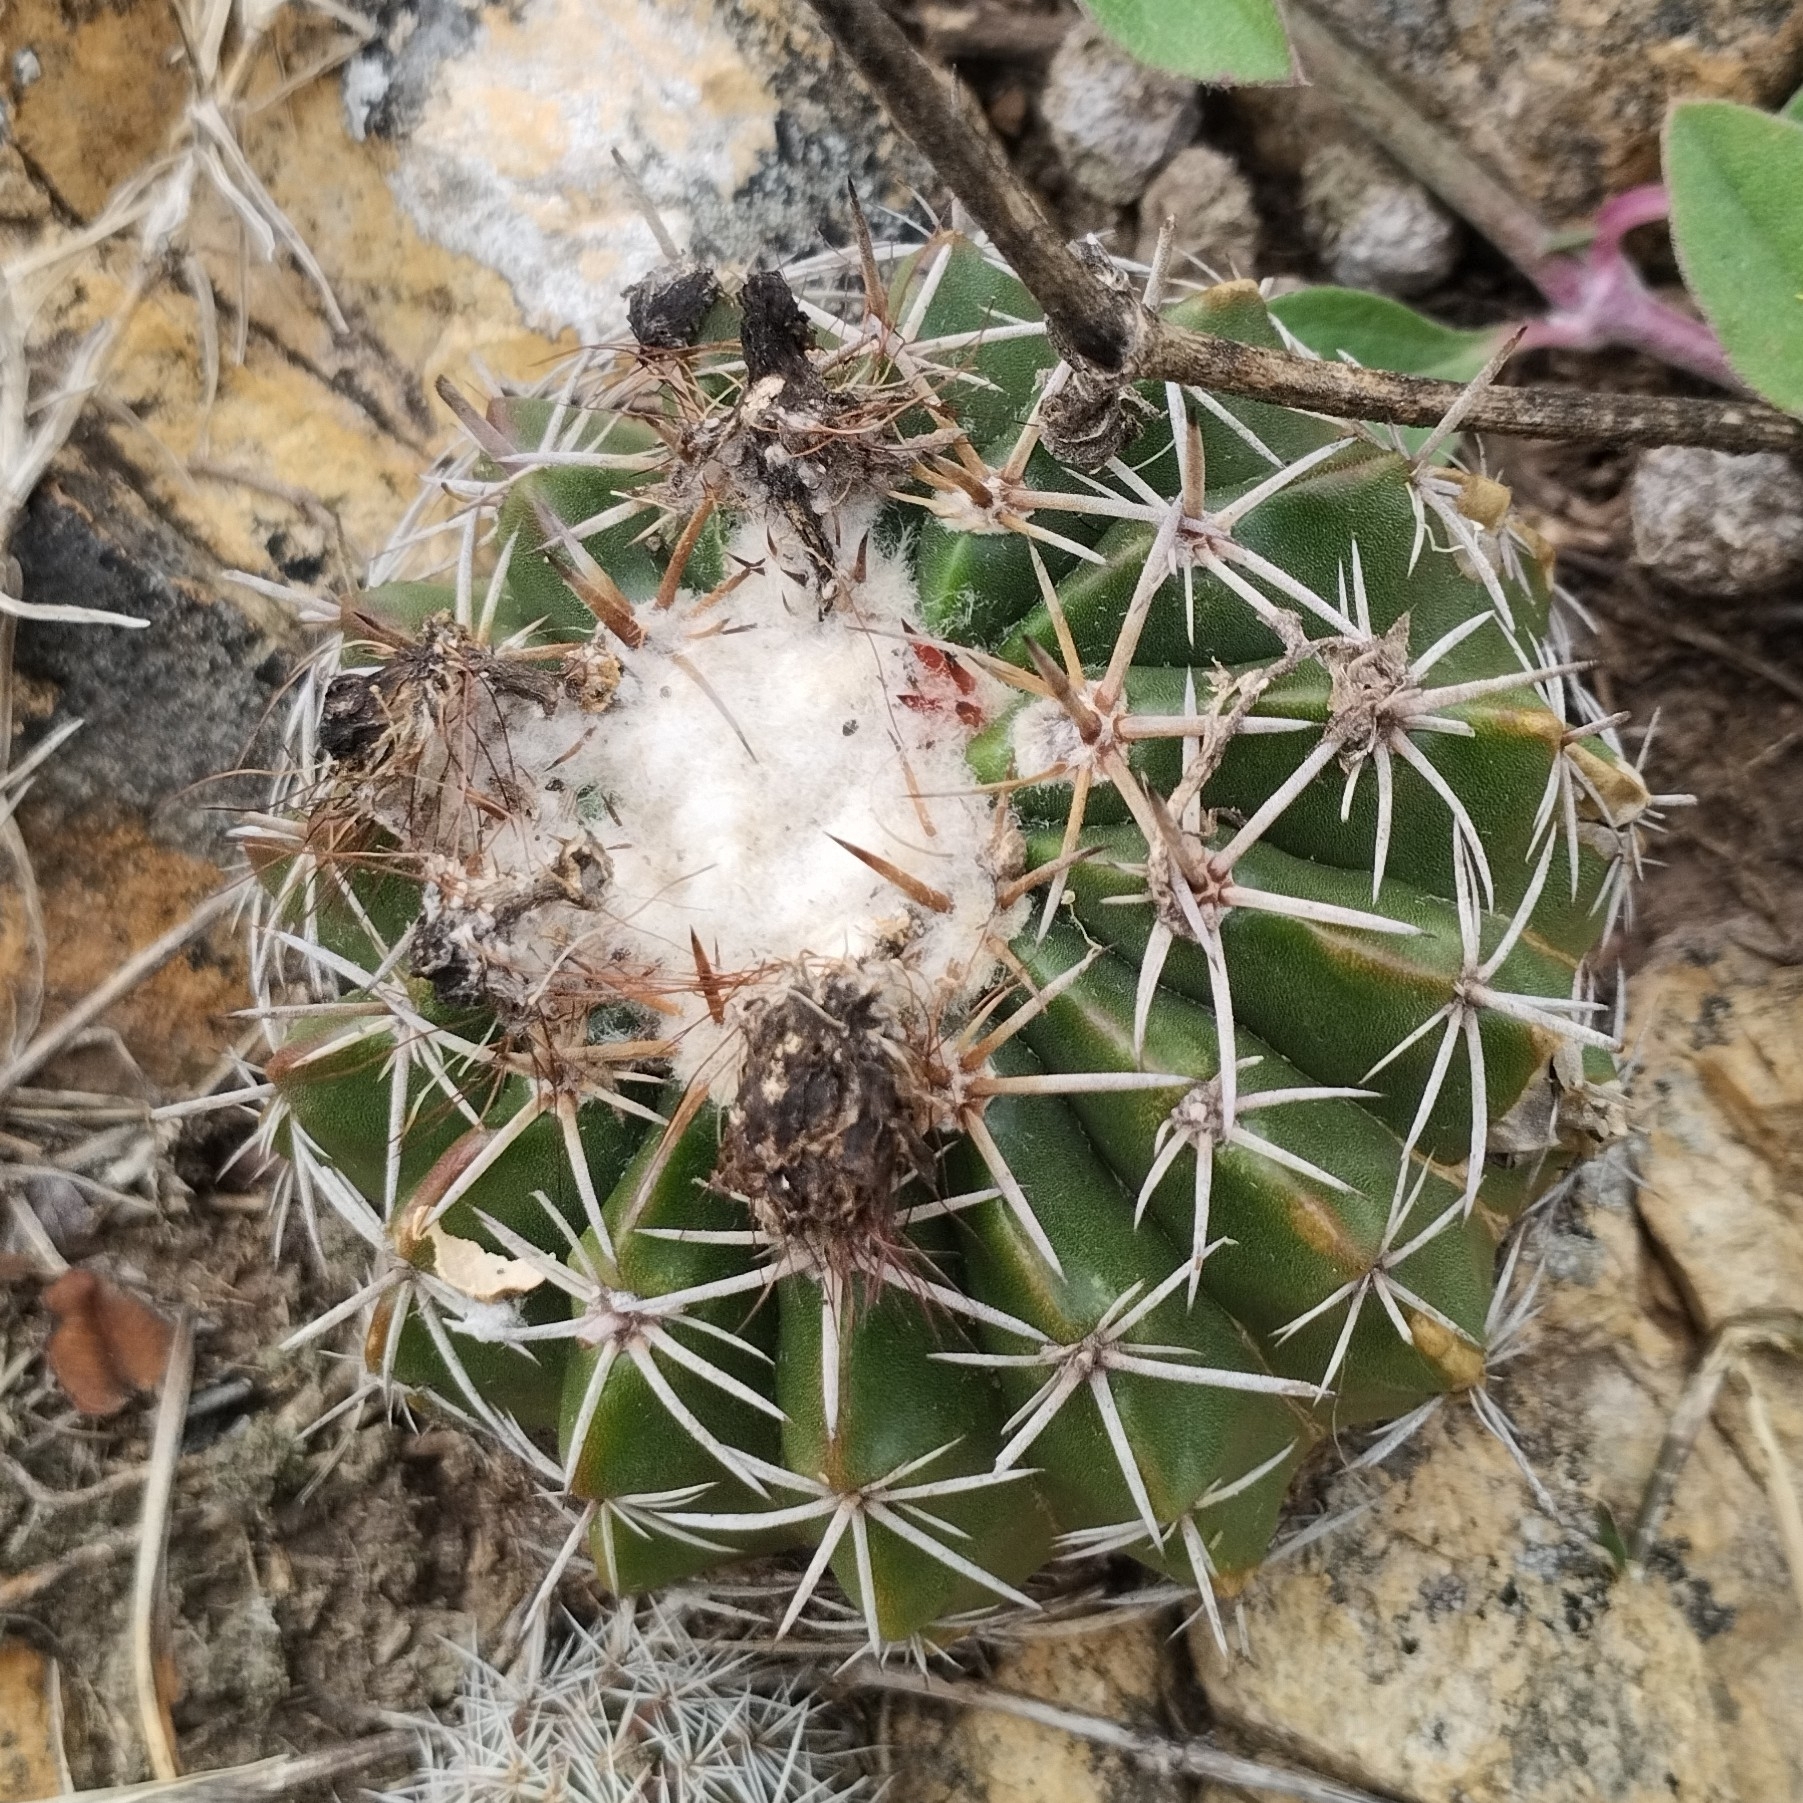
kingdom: Plantae
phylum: Tracheophyta
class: Magnoliopsida
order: Caryophyllales
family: Cactaceae
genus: Parodia
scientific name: Parodia erinacea
